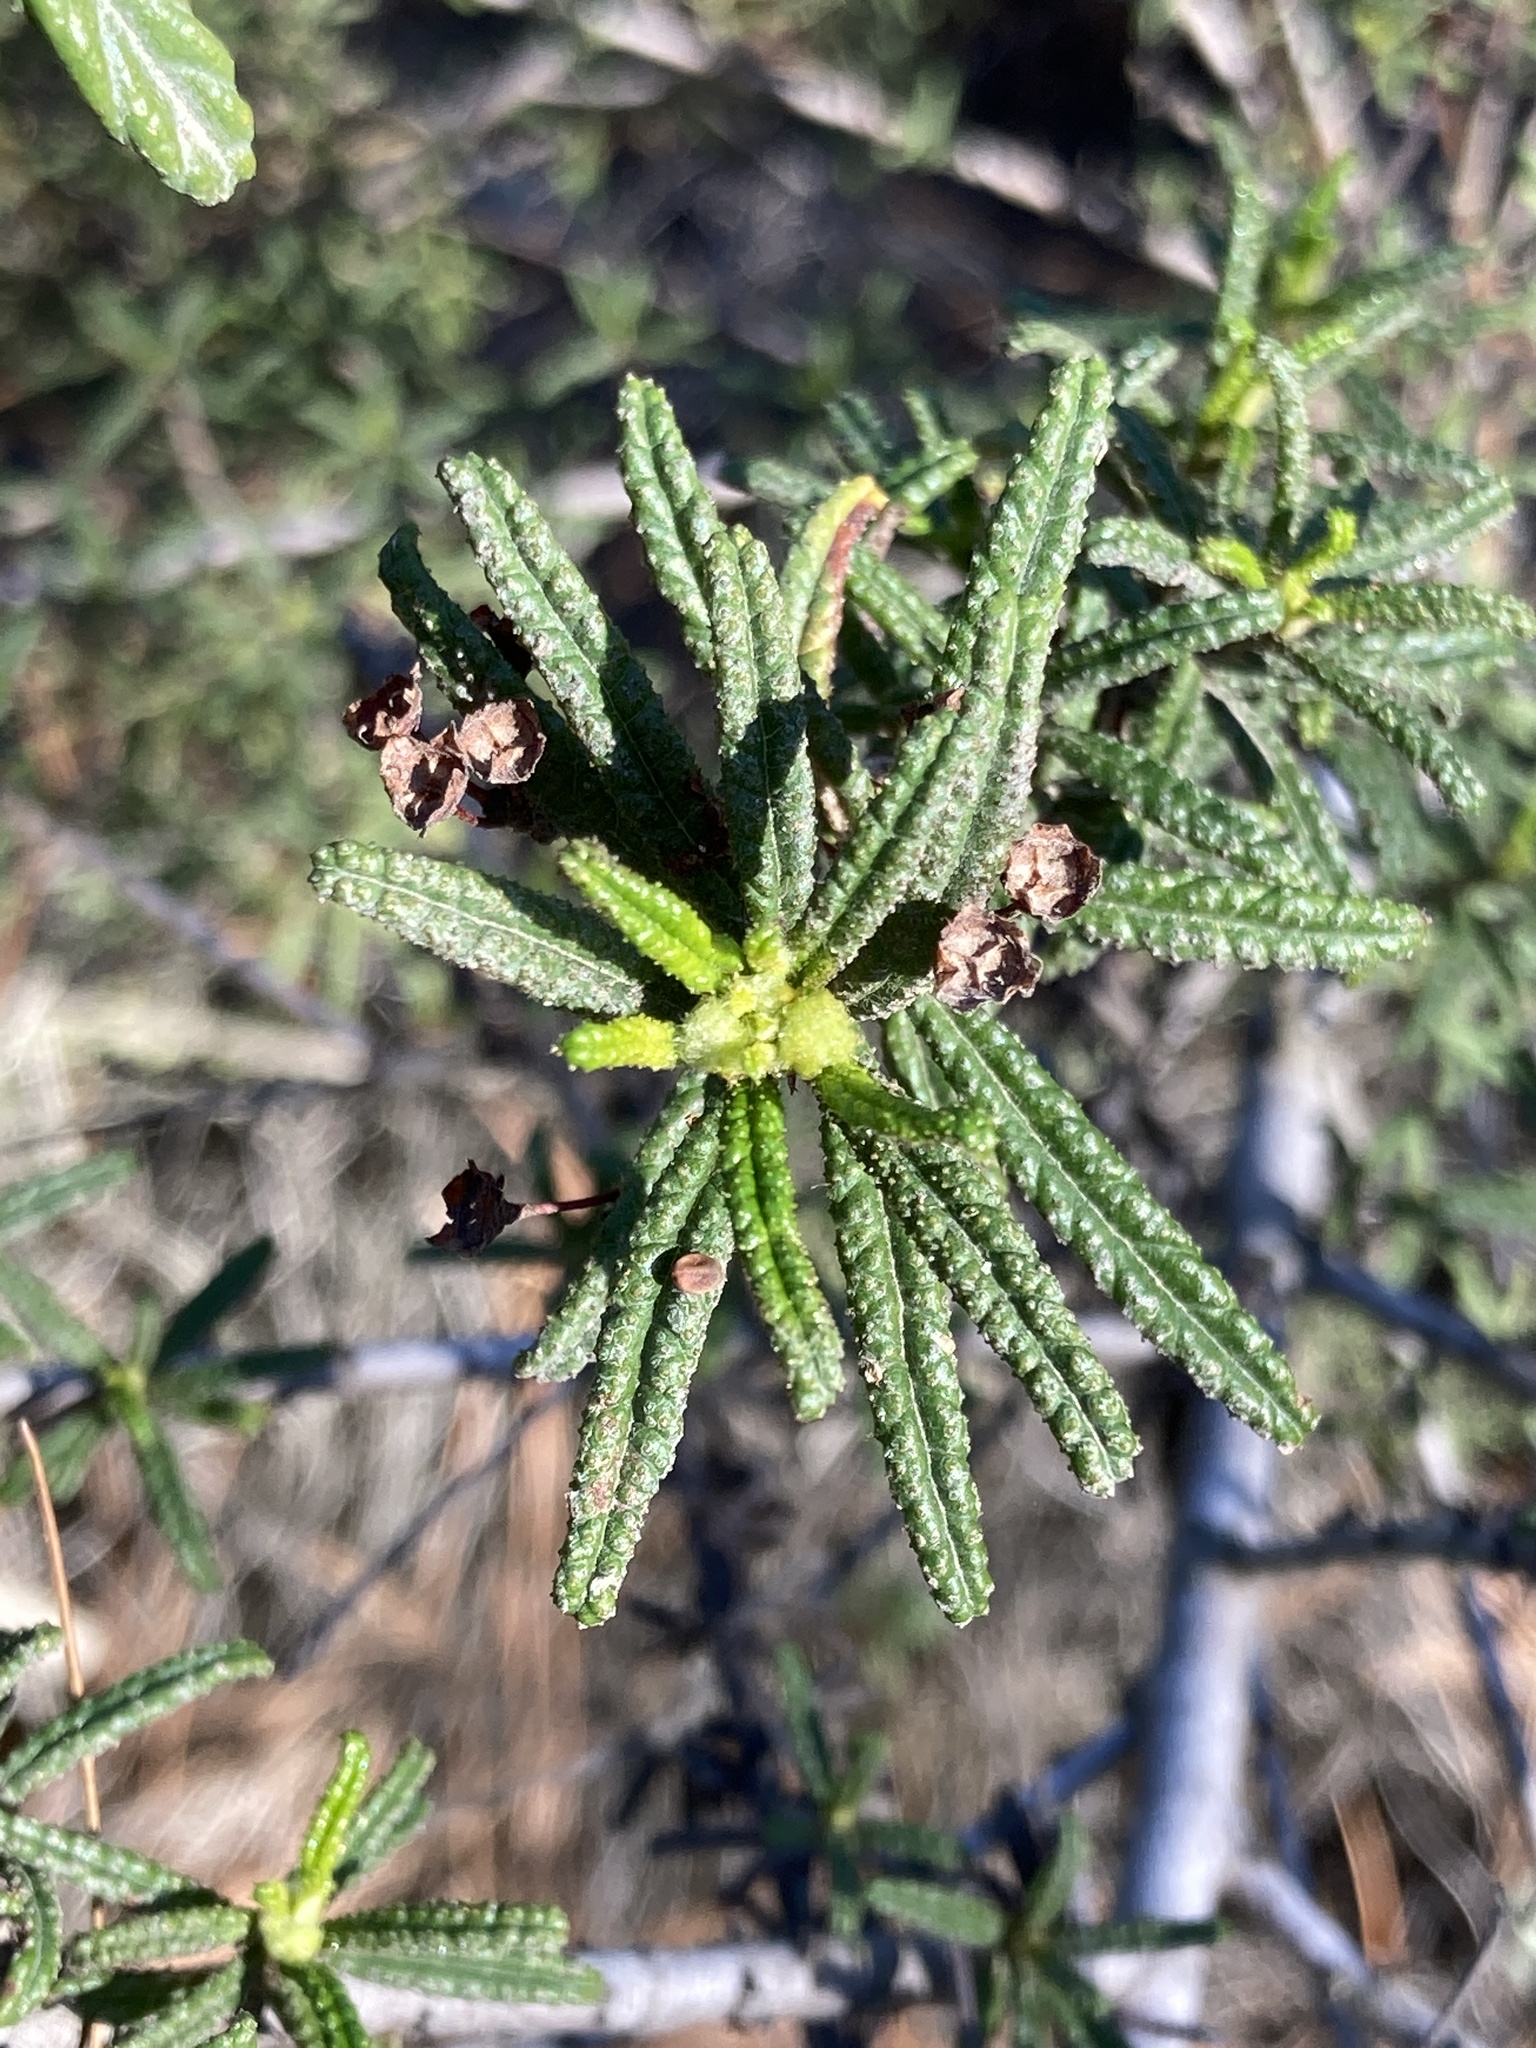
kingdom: Plantae
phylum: Tracheophyta
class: Magnoliopsida
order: Rosales
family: Rhamnaceae
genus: Ceanothus
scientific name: Ceanothus papillosus
